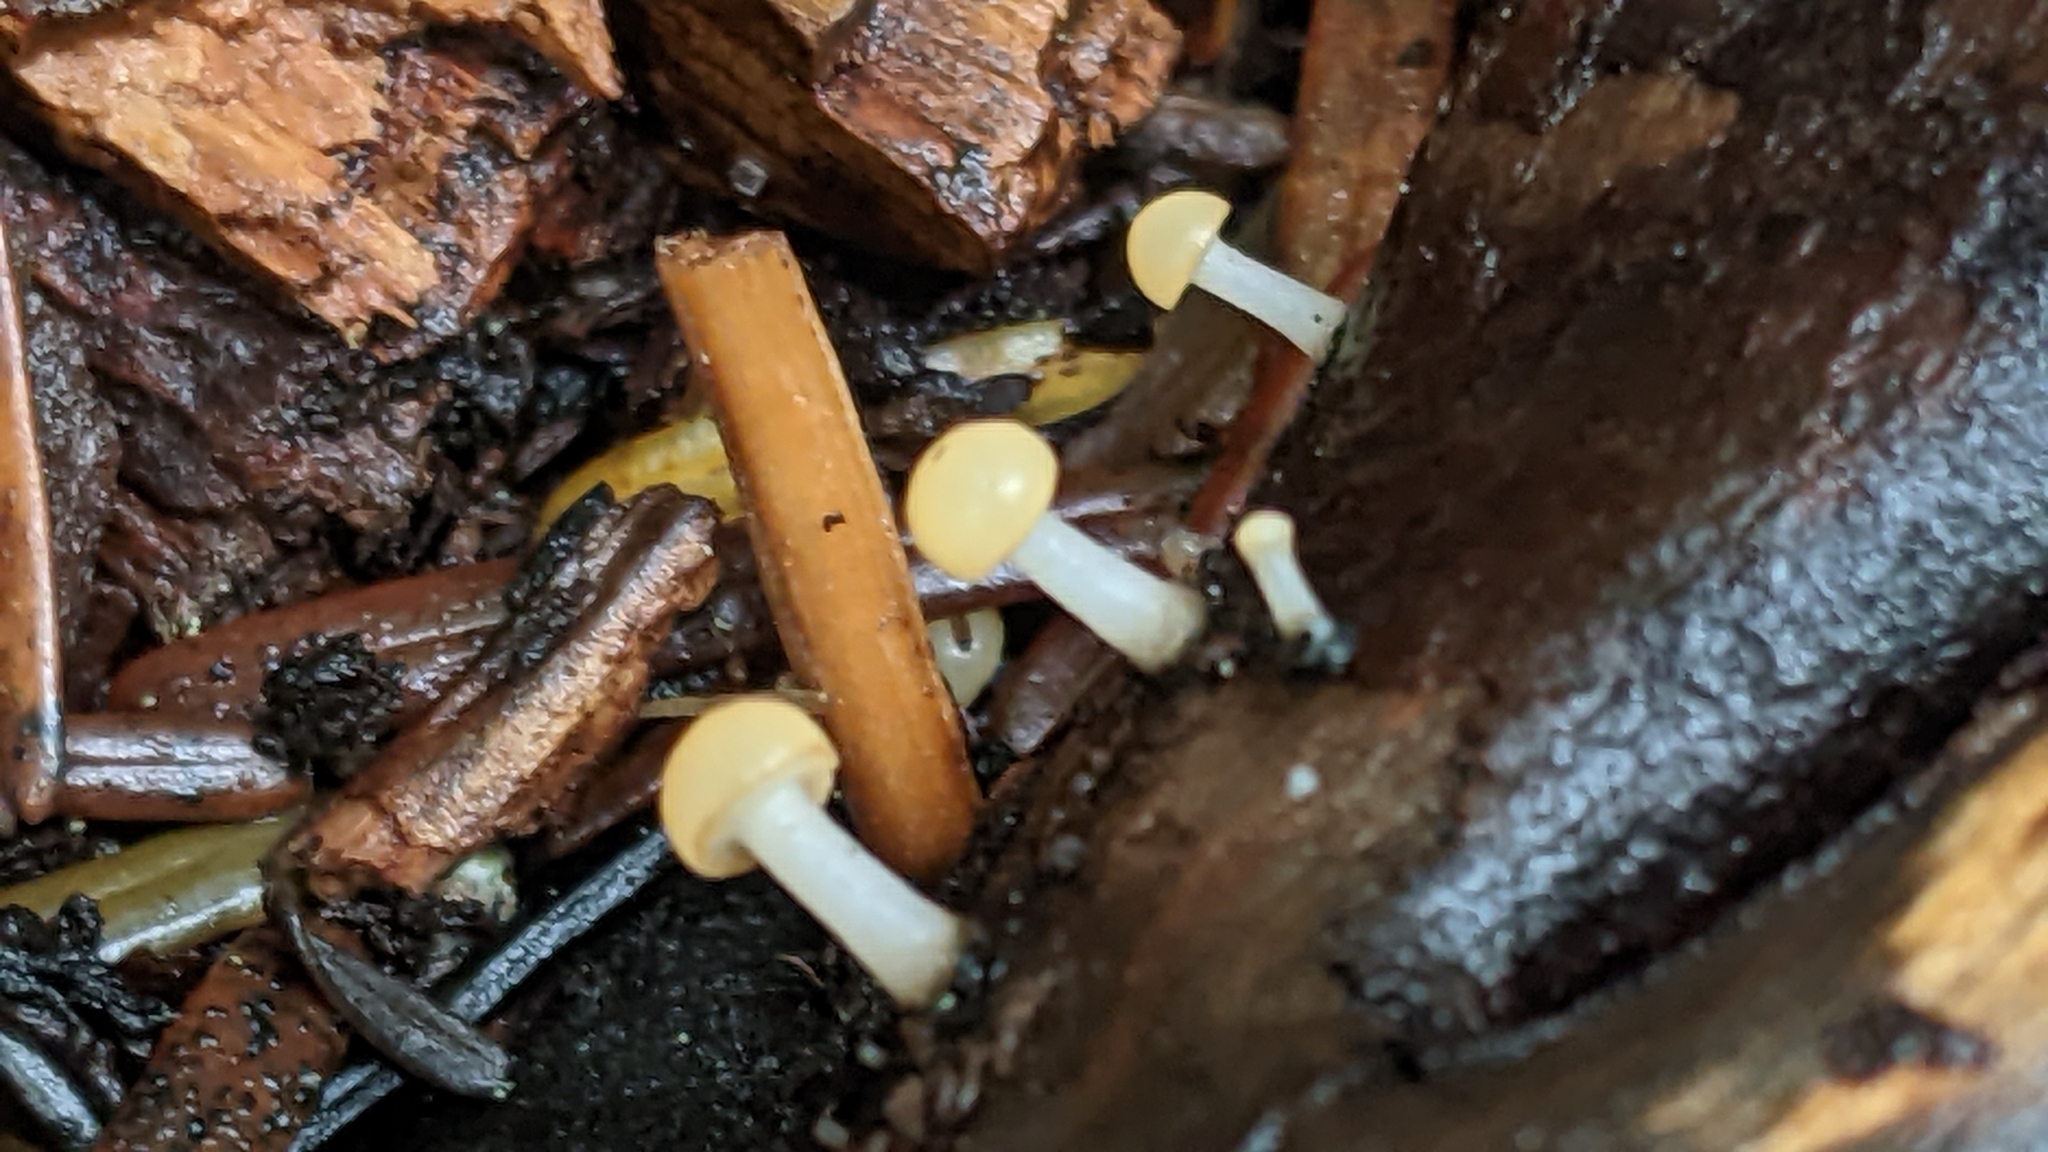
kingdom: Fungi
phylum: Ascomycota
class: Leotiomycetes
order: Helotiales
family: Vibrisseaceae
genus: Vibrissea
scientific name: Vibrissea truncorum
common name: Stream beacon
